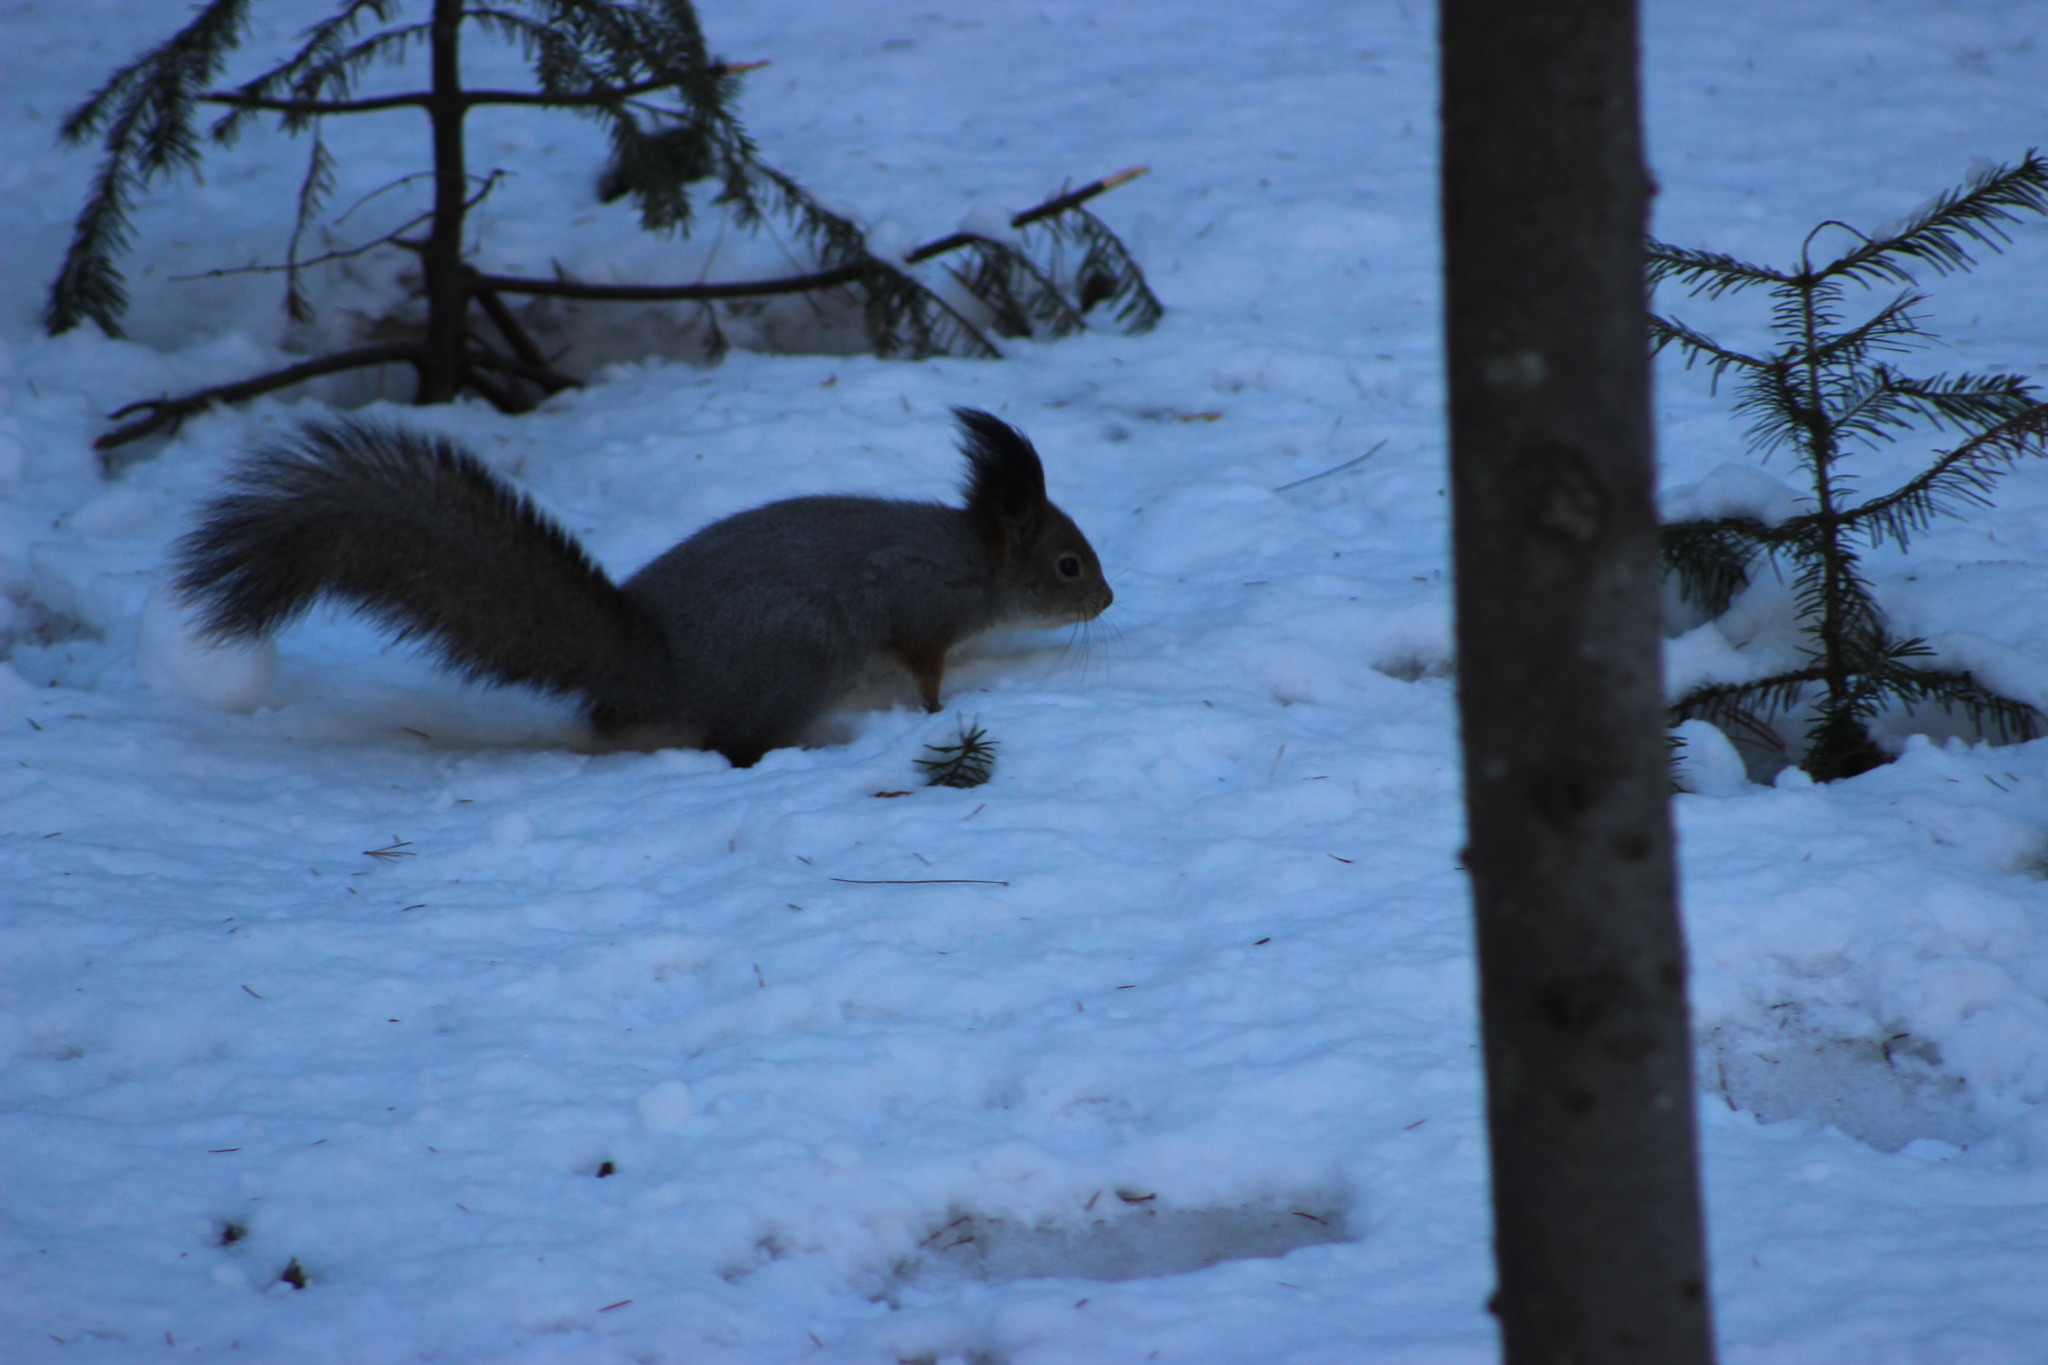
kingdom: Animalia
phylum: Chordata
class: Mammalia
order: Rodentia
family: Sciuridae
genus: Sciurus
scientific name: Sciurus vulgaris
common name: Eurasian red squirrel
